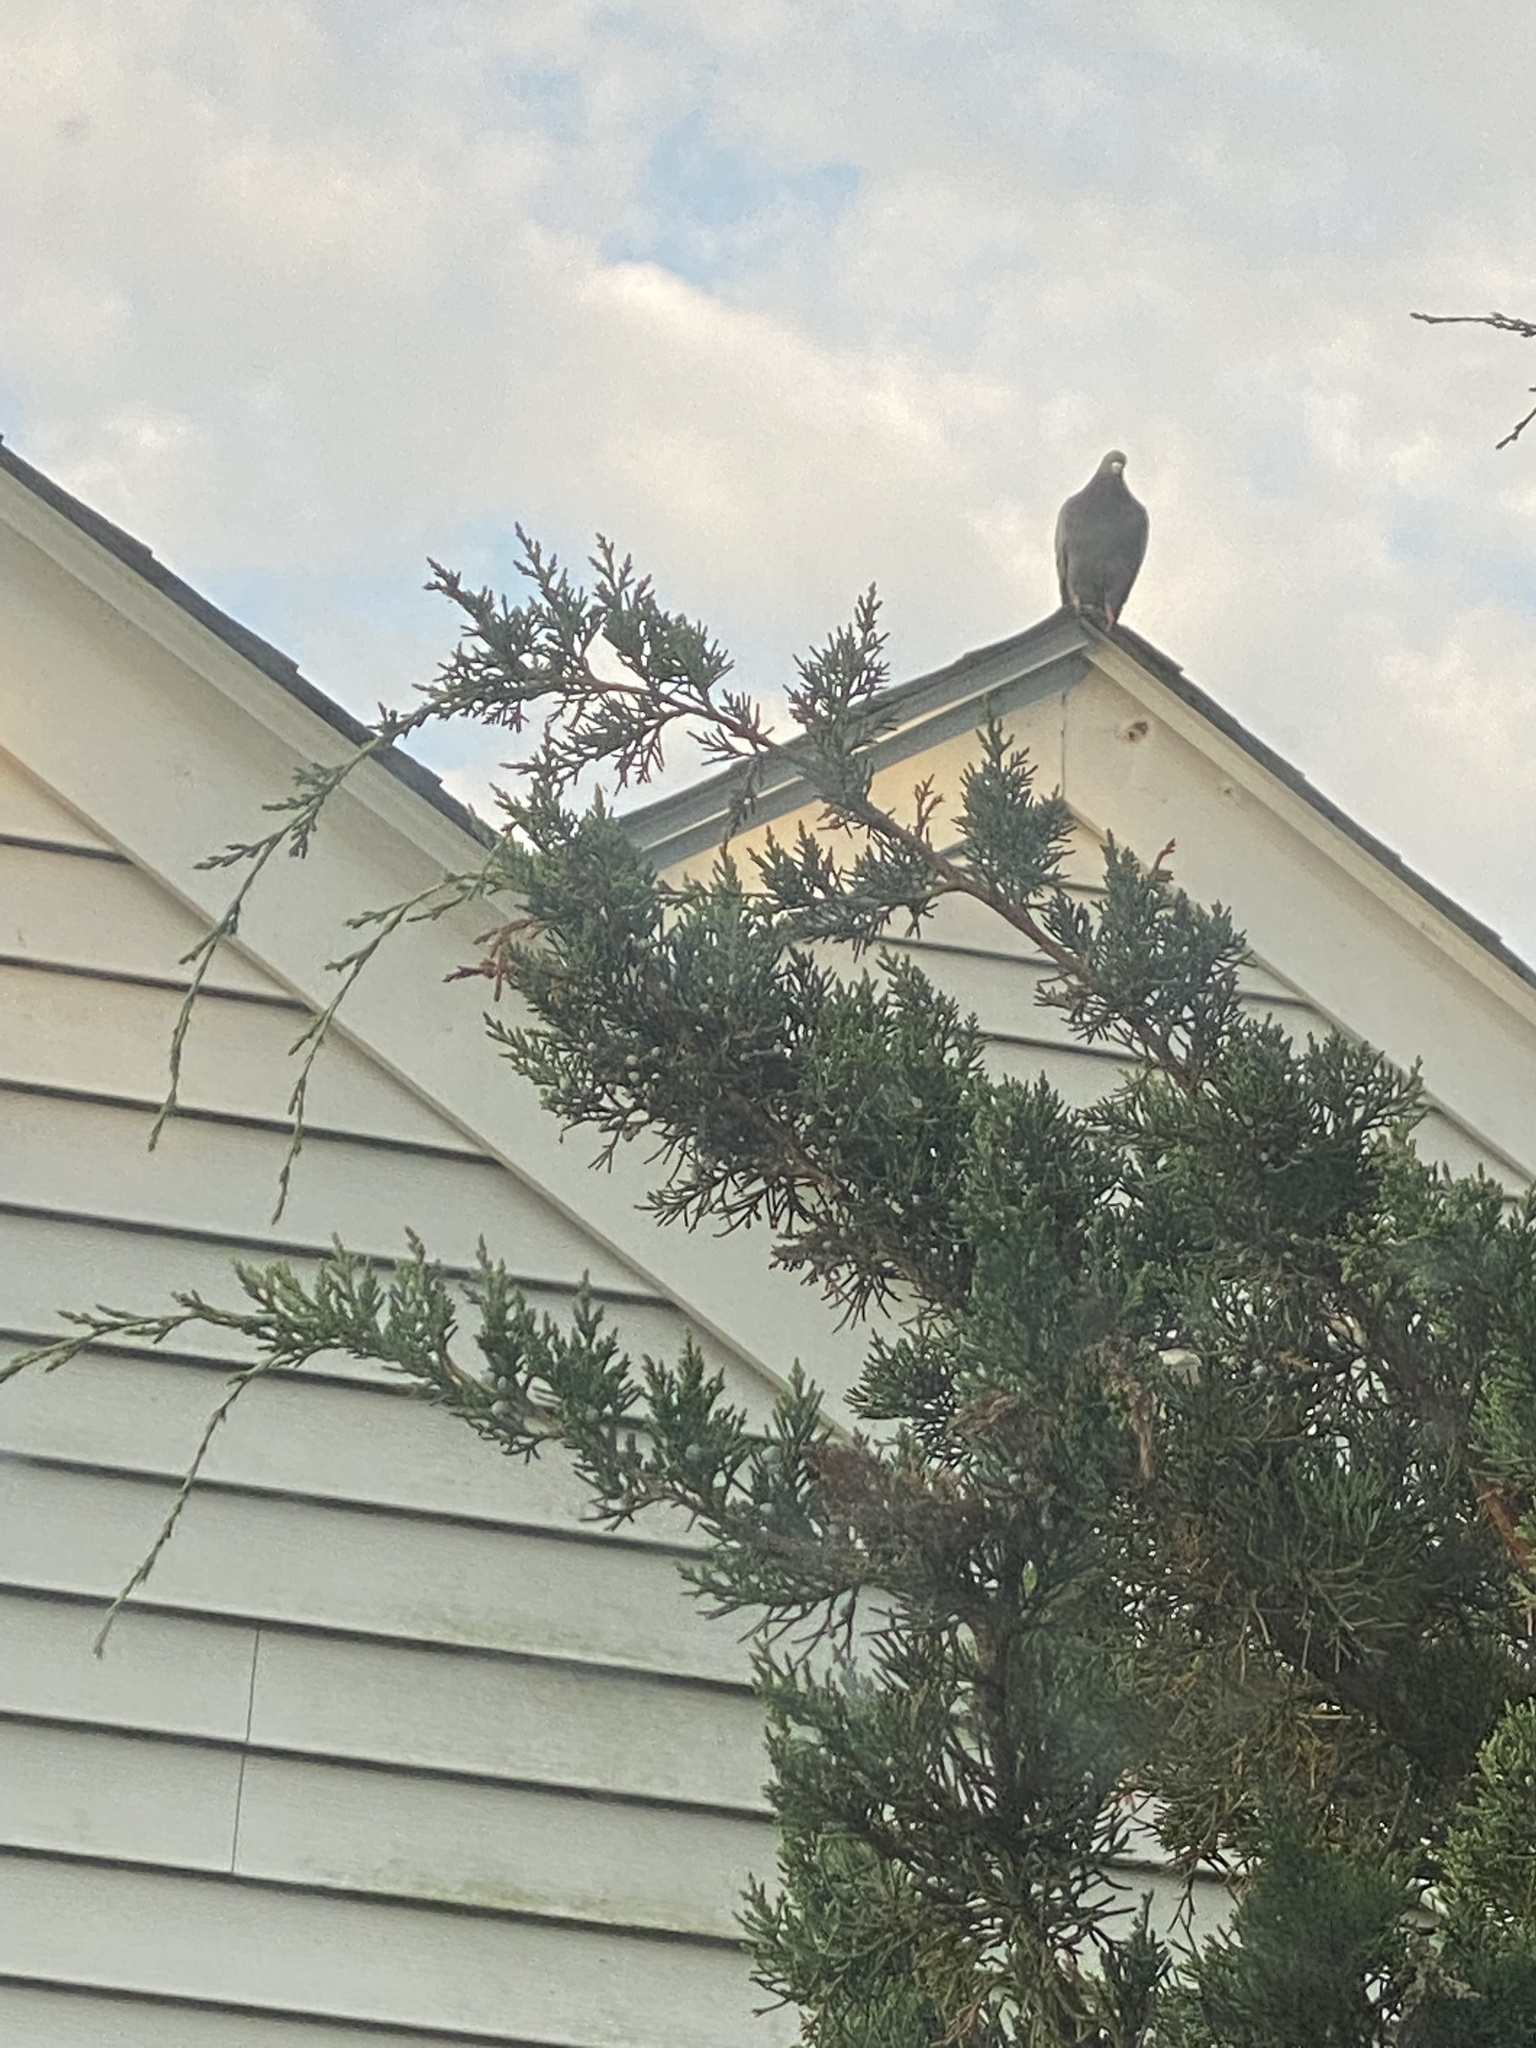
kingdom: Animalia
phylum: Chordata
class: Aves
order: Columbiformes
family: Columbidae
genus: Columba
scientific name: Columba livia
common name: Rock pigeon
